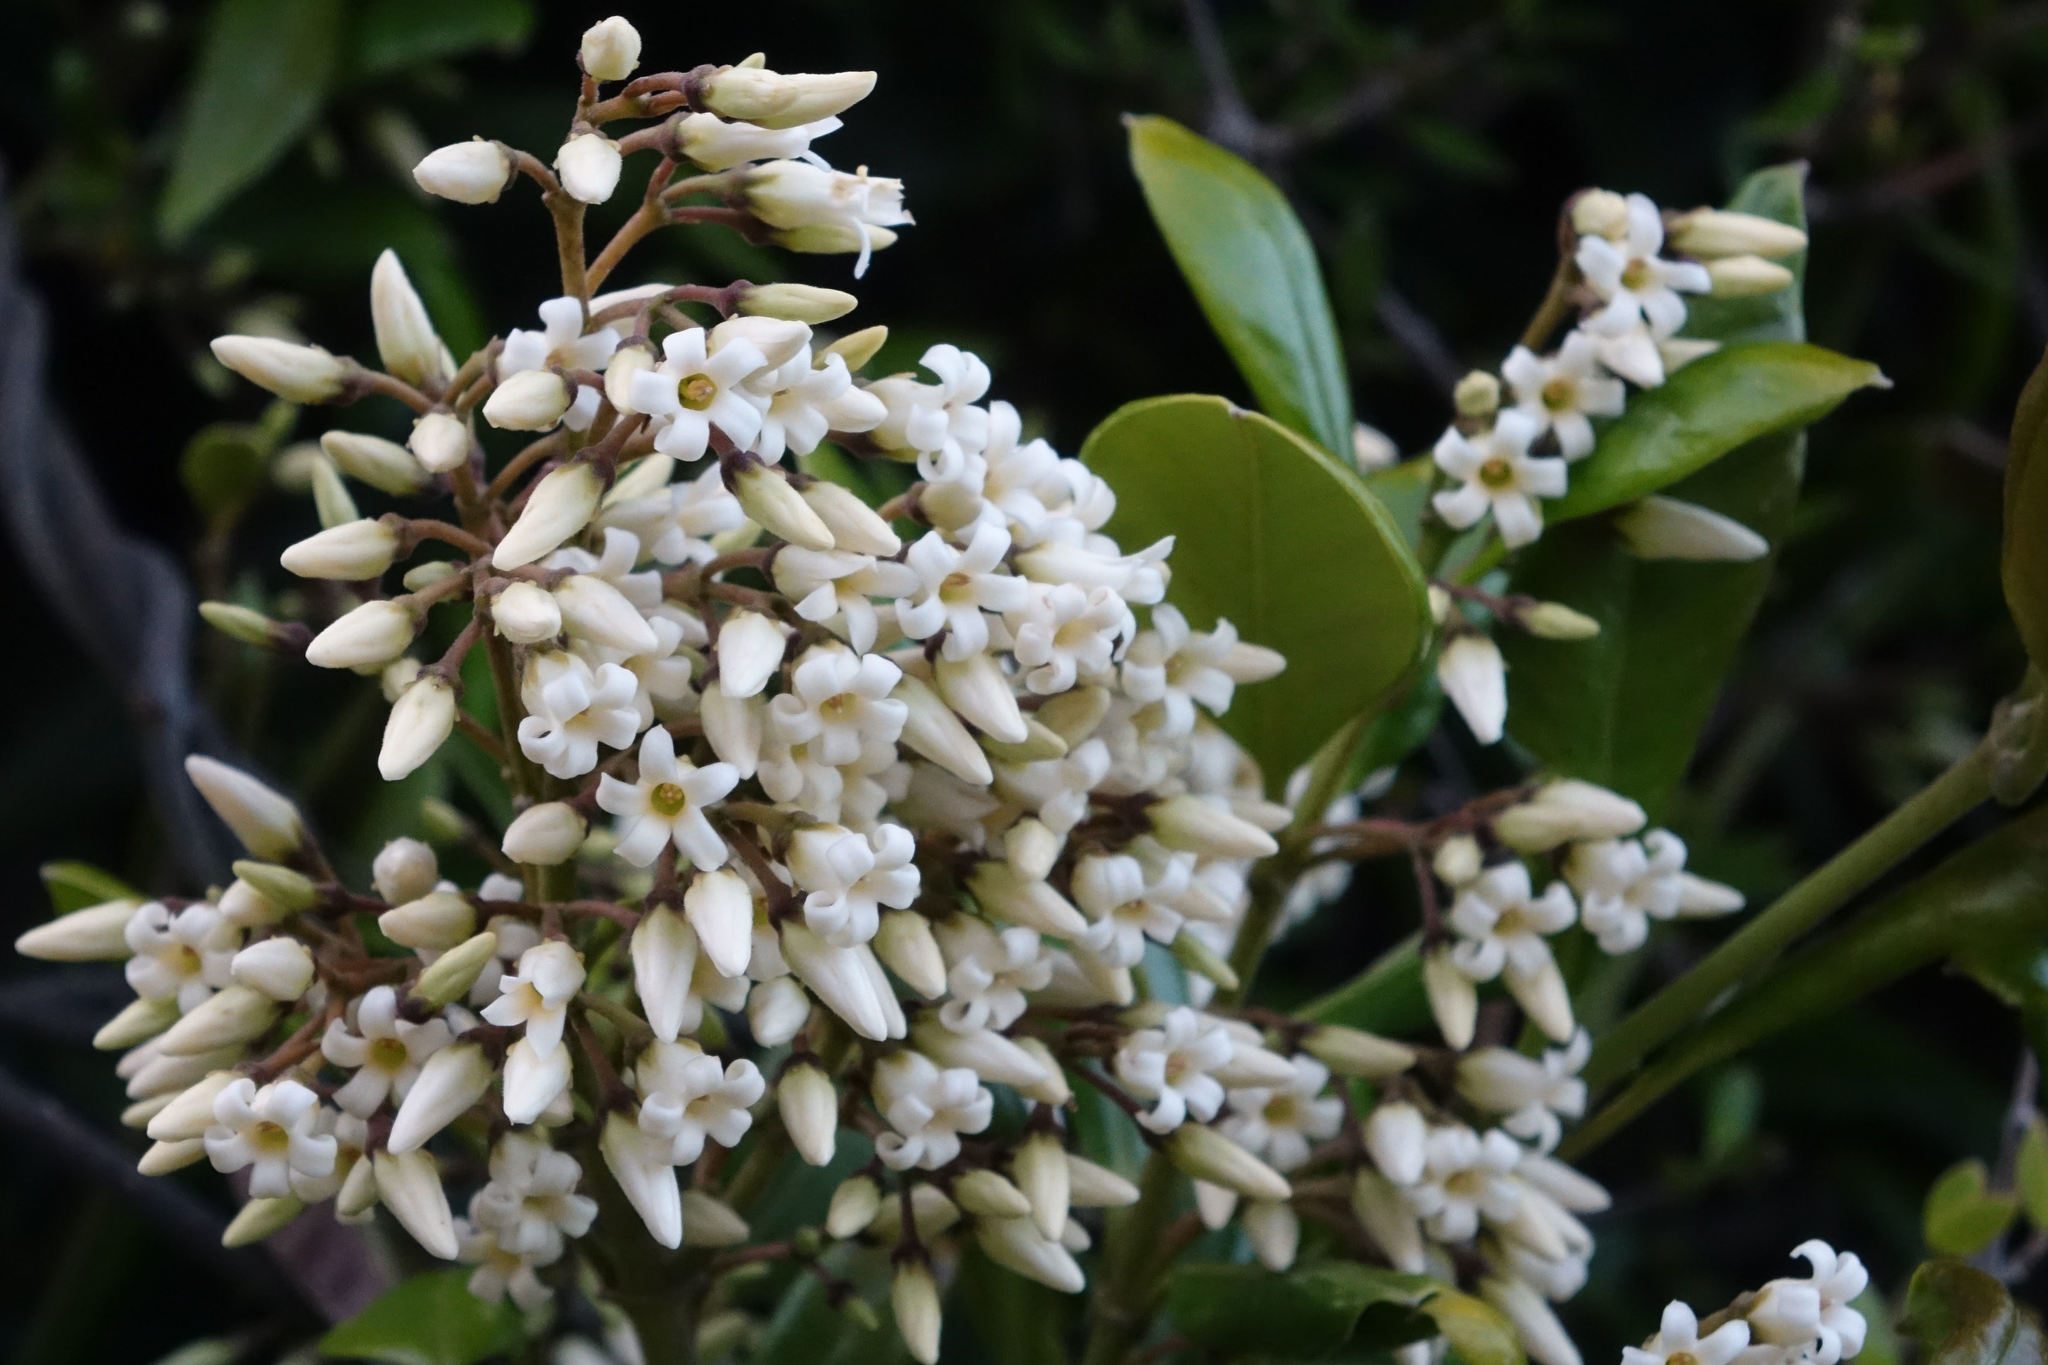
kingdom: Plantae
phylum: Tracheophyta
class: Magnoliopsida
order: Gentianales
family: Apocynaceae
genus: Parsonsia
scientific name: Parsonsia heterophylla
